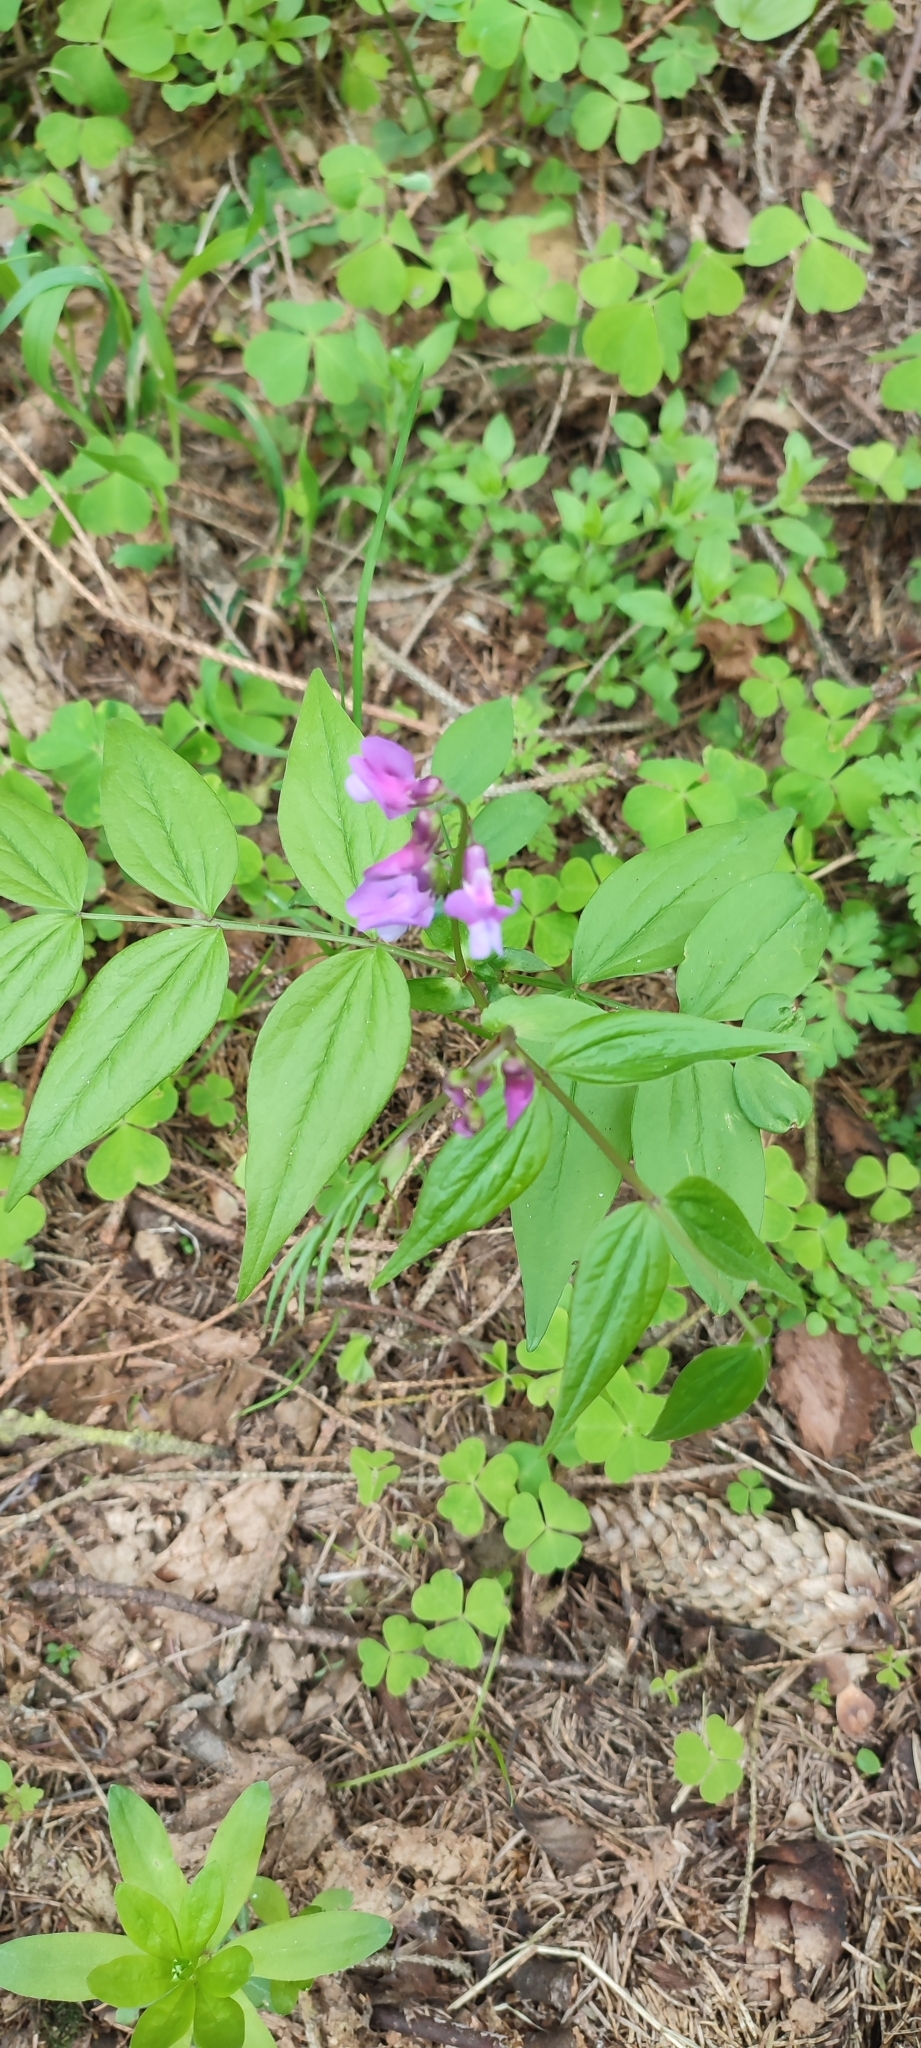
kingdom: Plantae
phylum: Tracheophyta
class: Magnoliopsida
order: Fabales
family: Fabaceae
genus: Lathyrus
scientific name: Lathyrus vernus
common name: Spring pea
